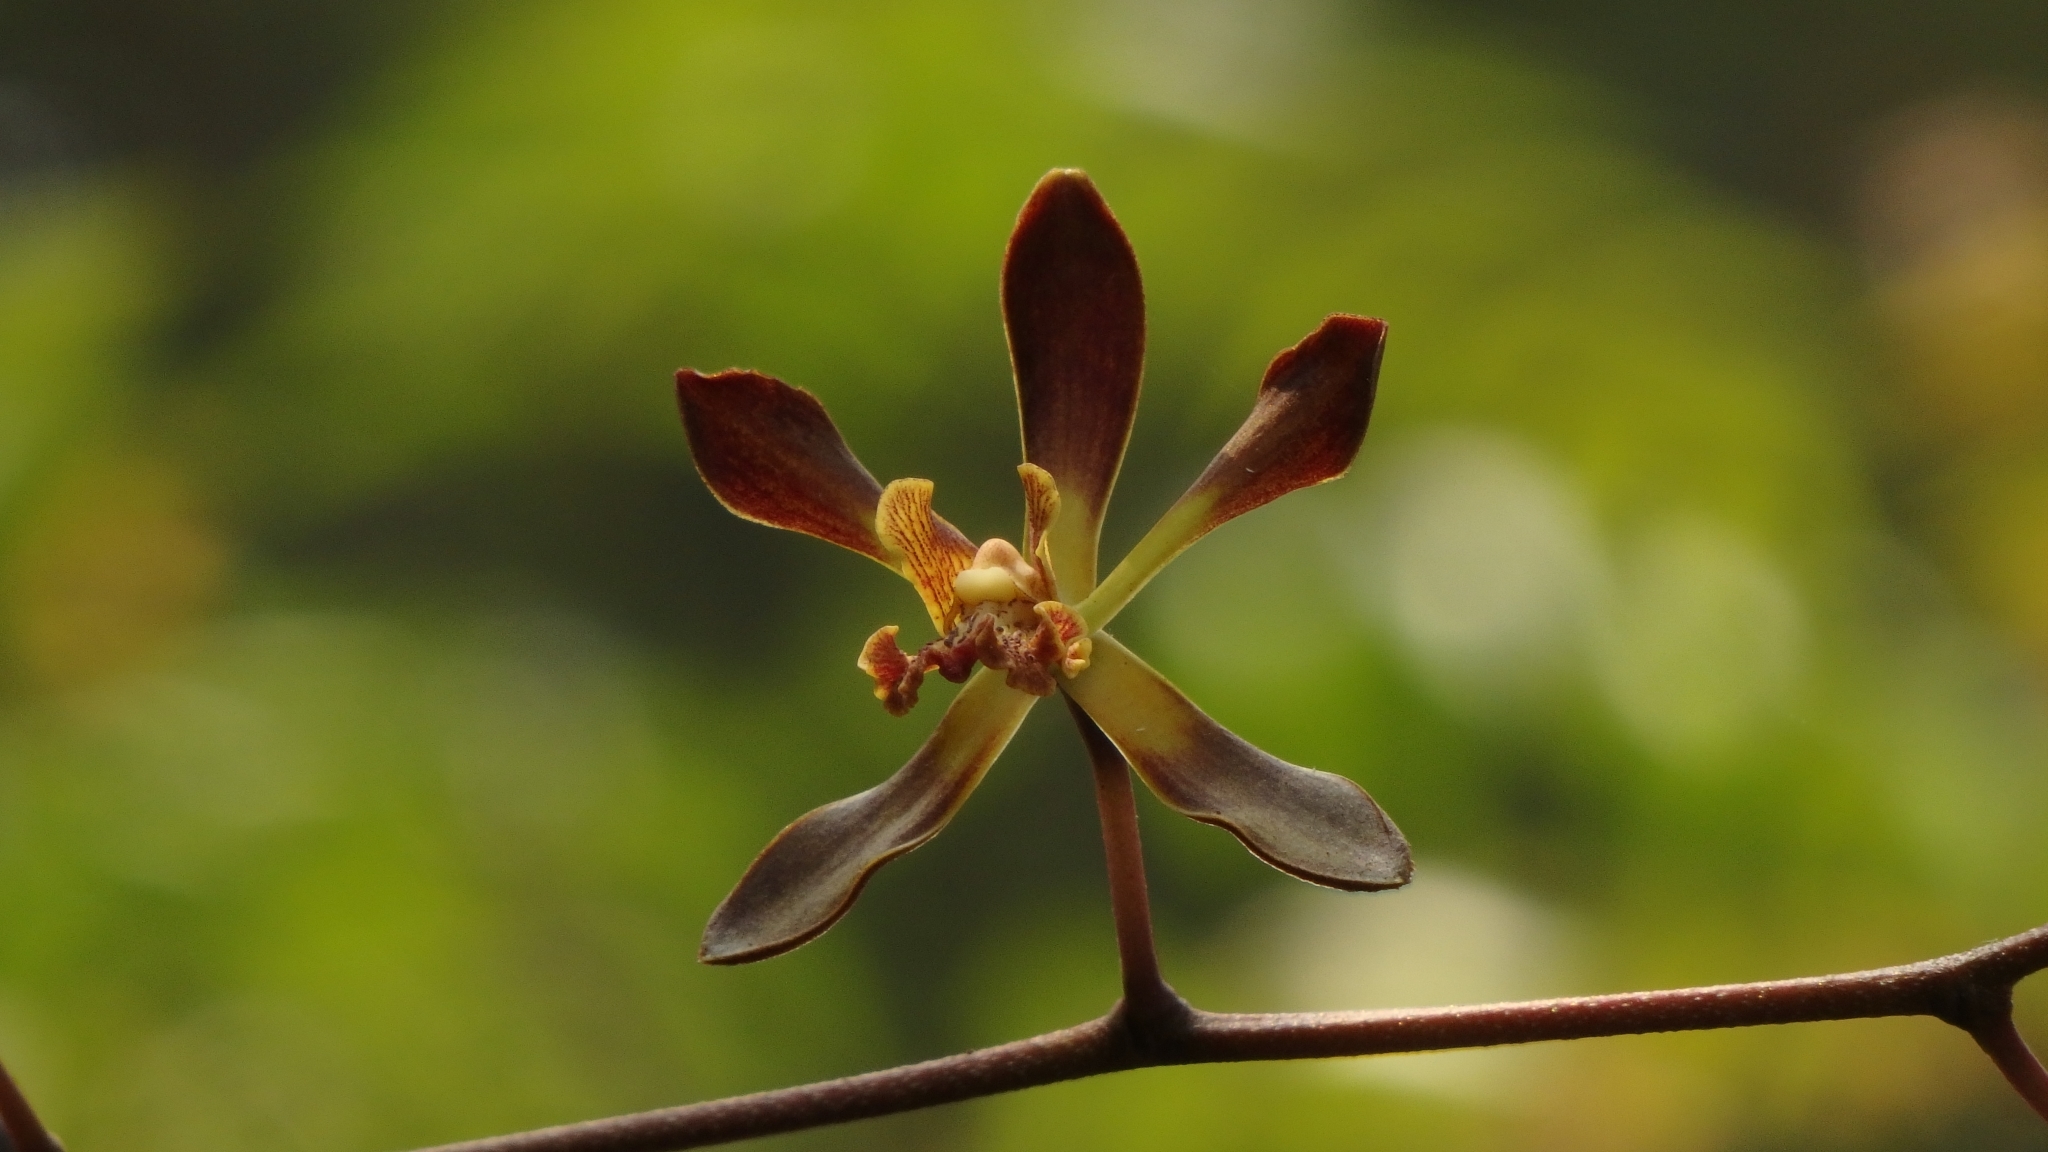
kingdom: Plantae
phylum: Tracheophyta
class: Liliopsida
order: Asparagales
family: Orchidaceae
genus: Encyclia
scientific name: Encyclia parviflora
